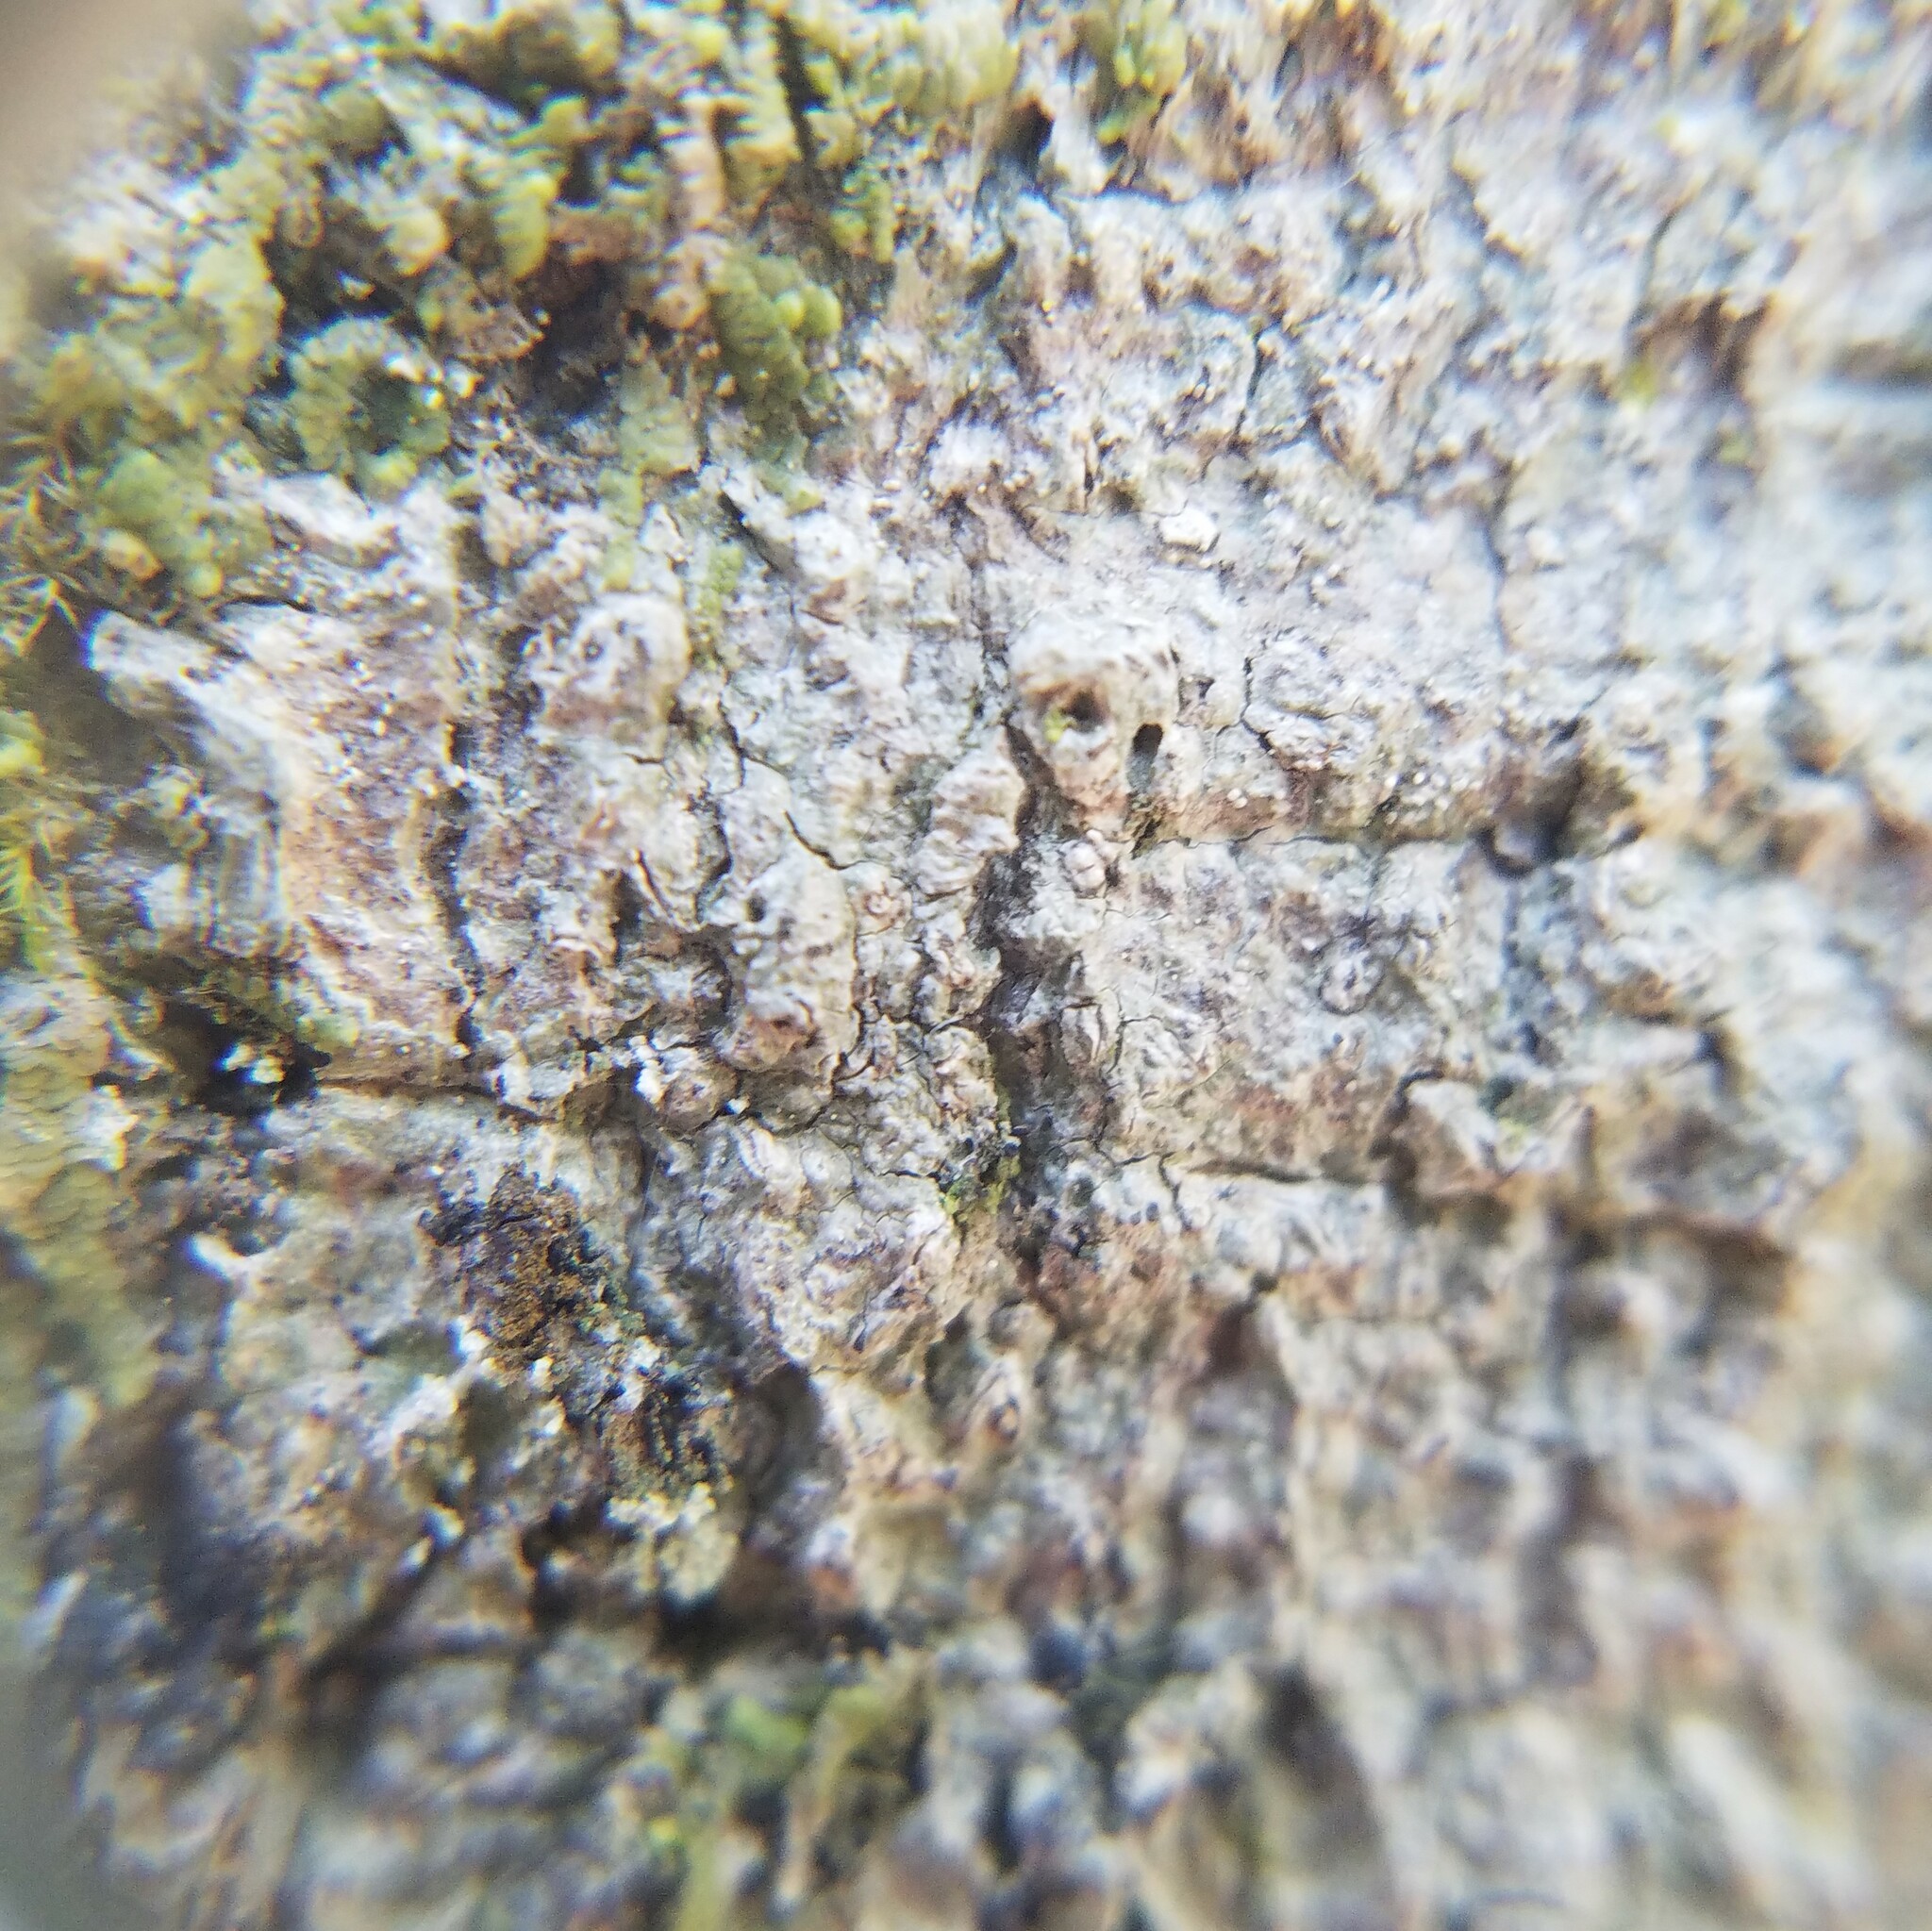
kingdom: Fungi
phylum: Ascomycota
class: Lecanoromycetes
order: Ostropales
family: Graphidaceae
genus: Fissurina
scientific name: Fissurina insidiosa
